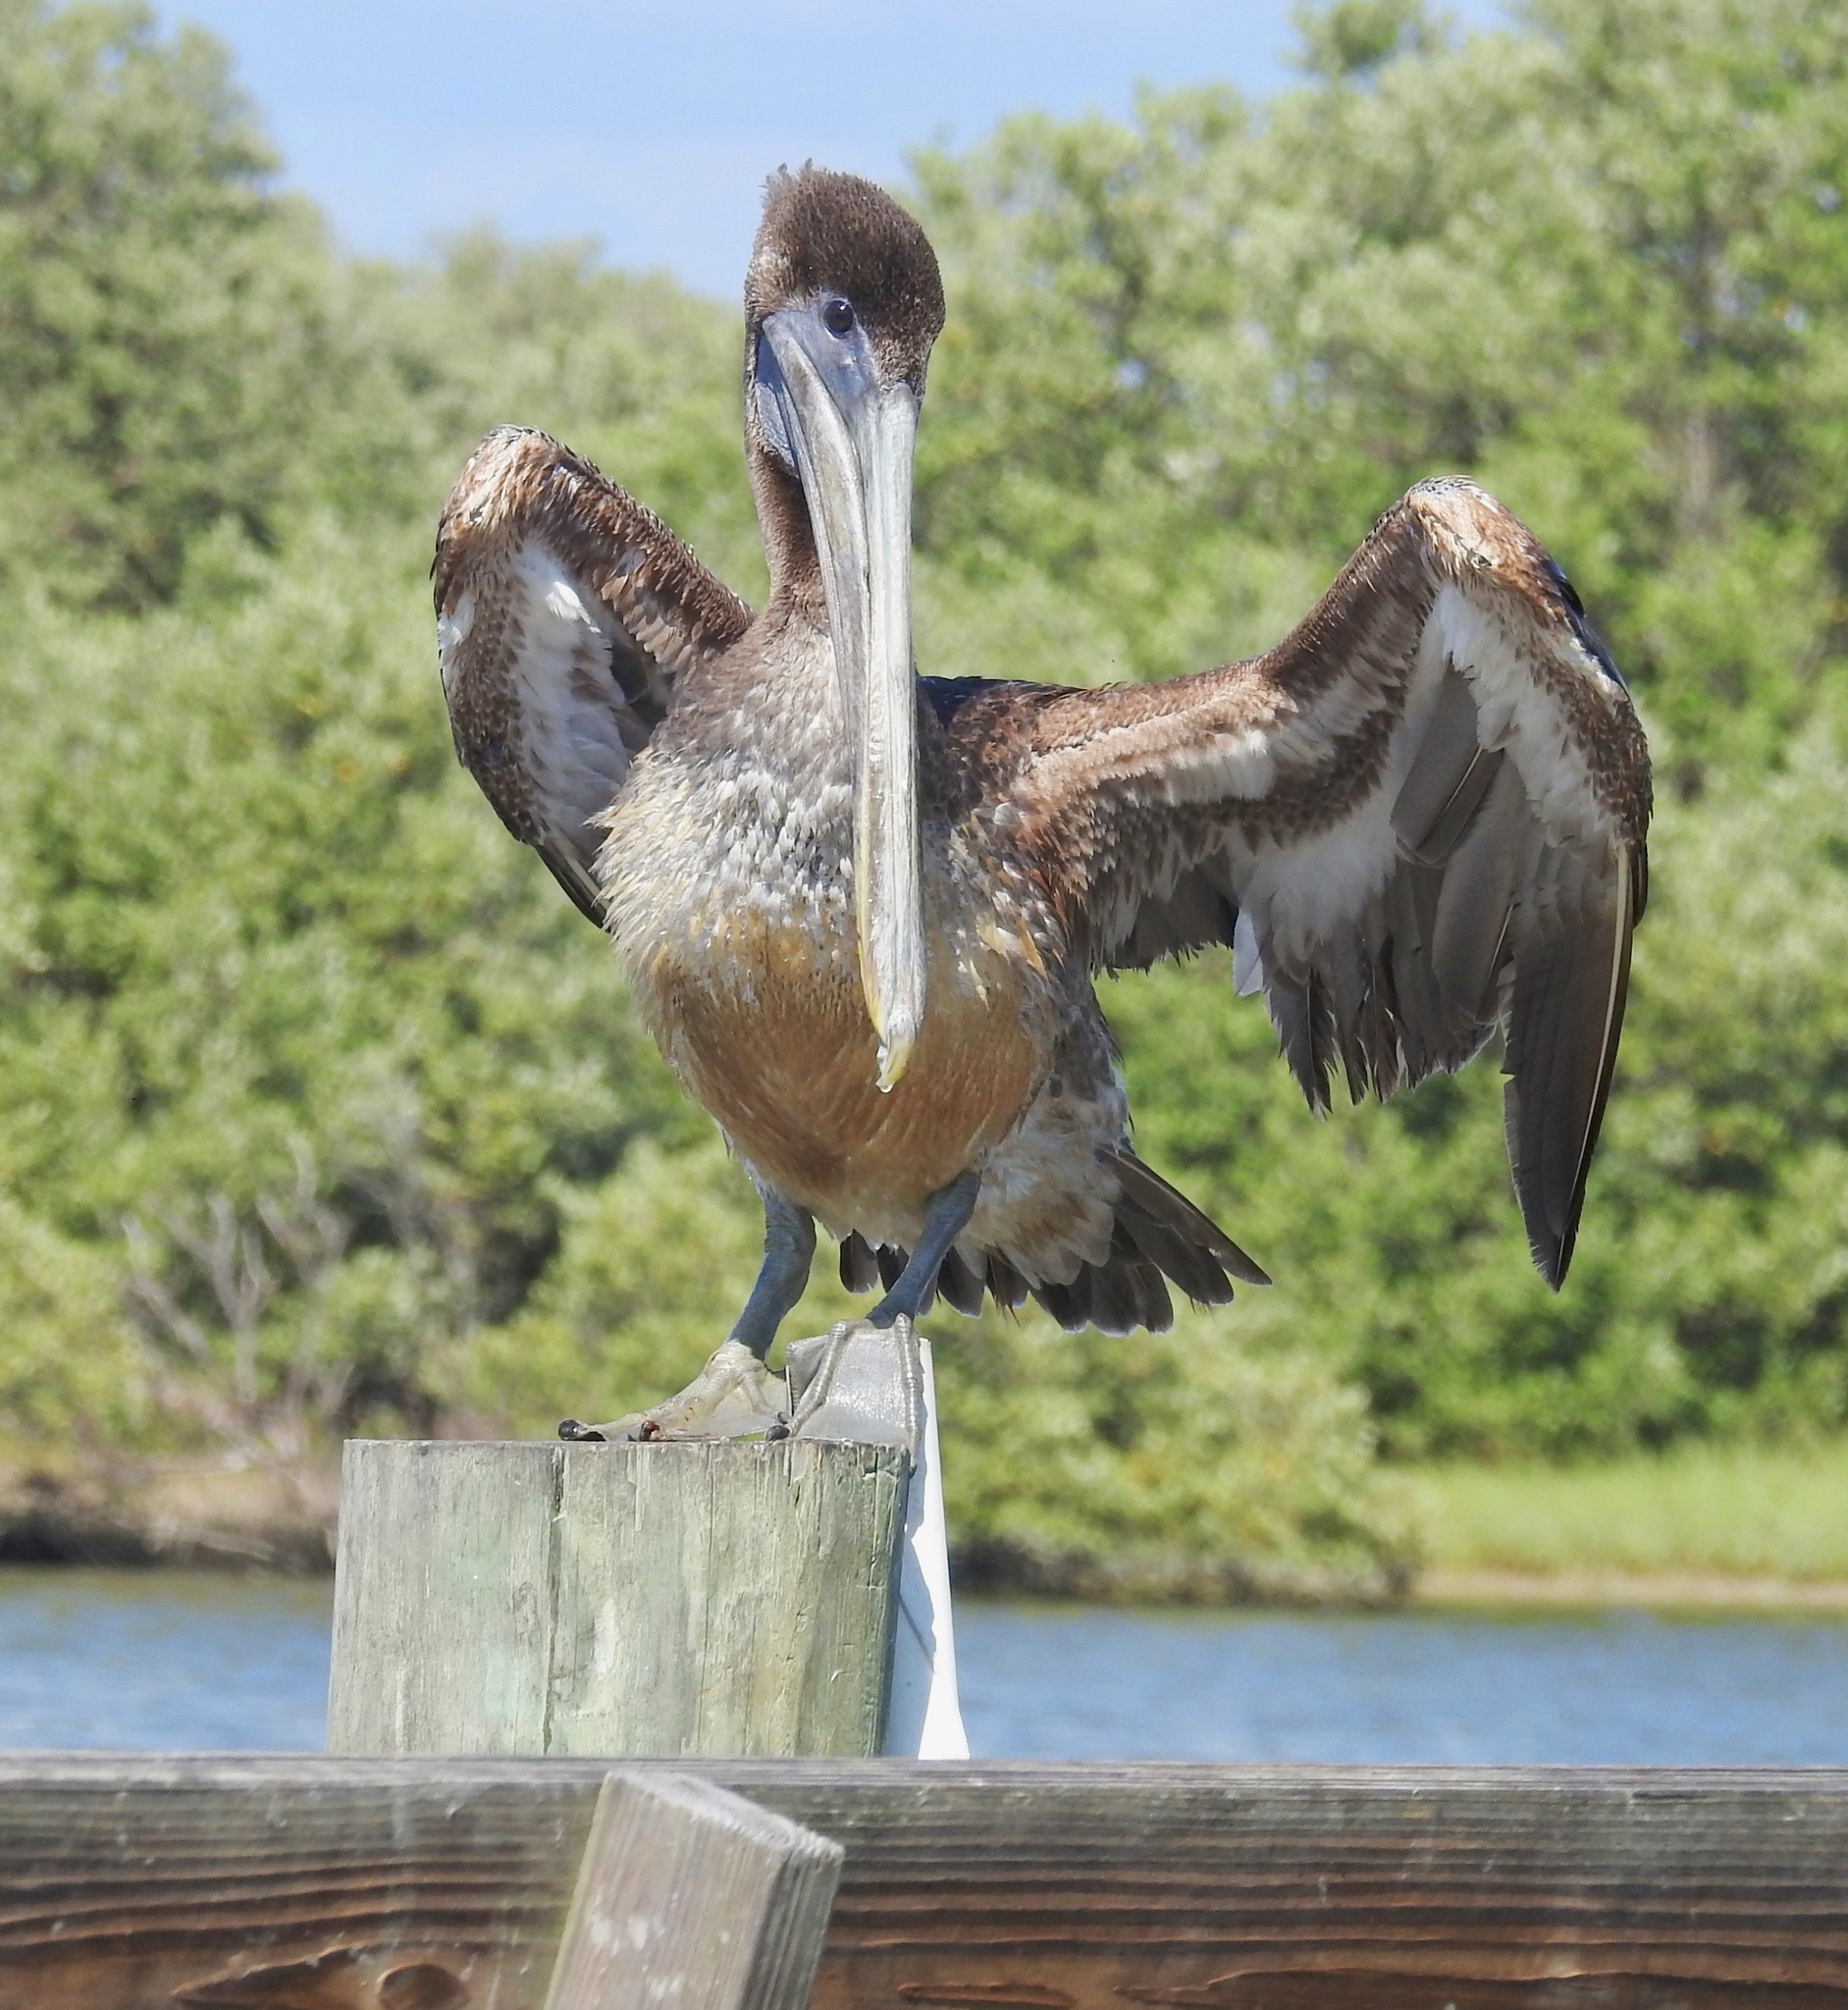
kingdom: Animalia
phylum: Chordata
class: Aves
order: Pelecaniformes
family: Pelecanidae
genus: Pelecanus
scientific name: Pelecanus occidentalis
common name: Brown pelican
